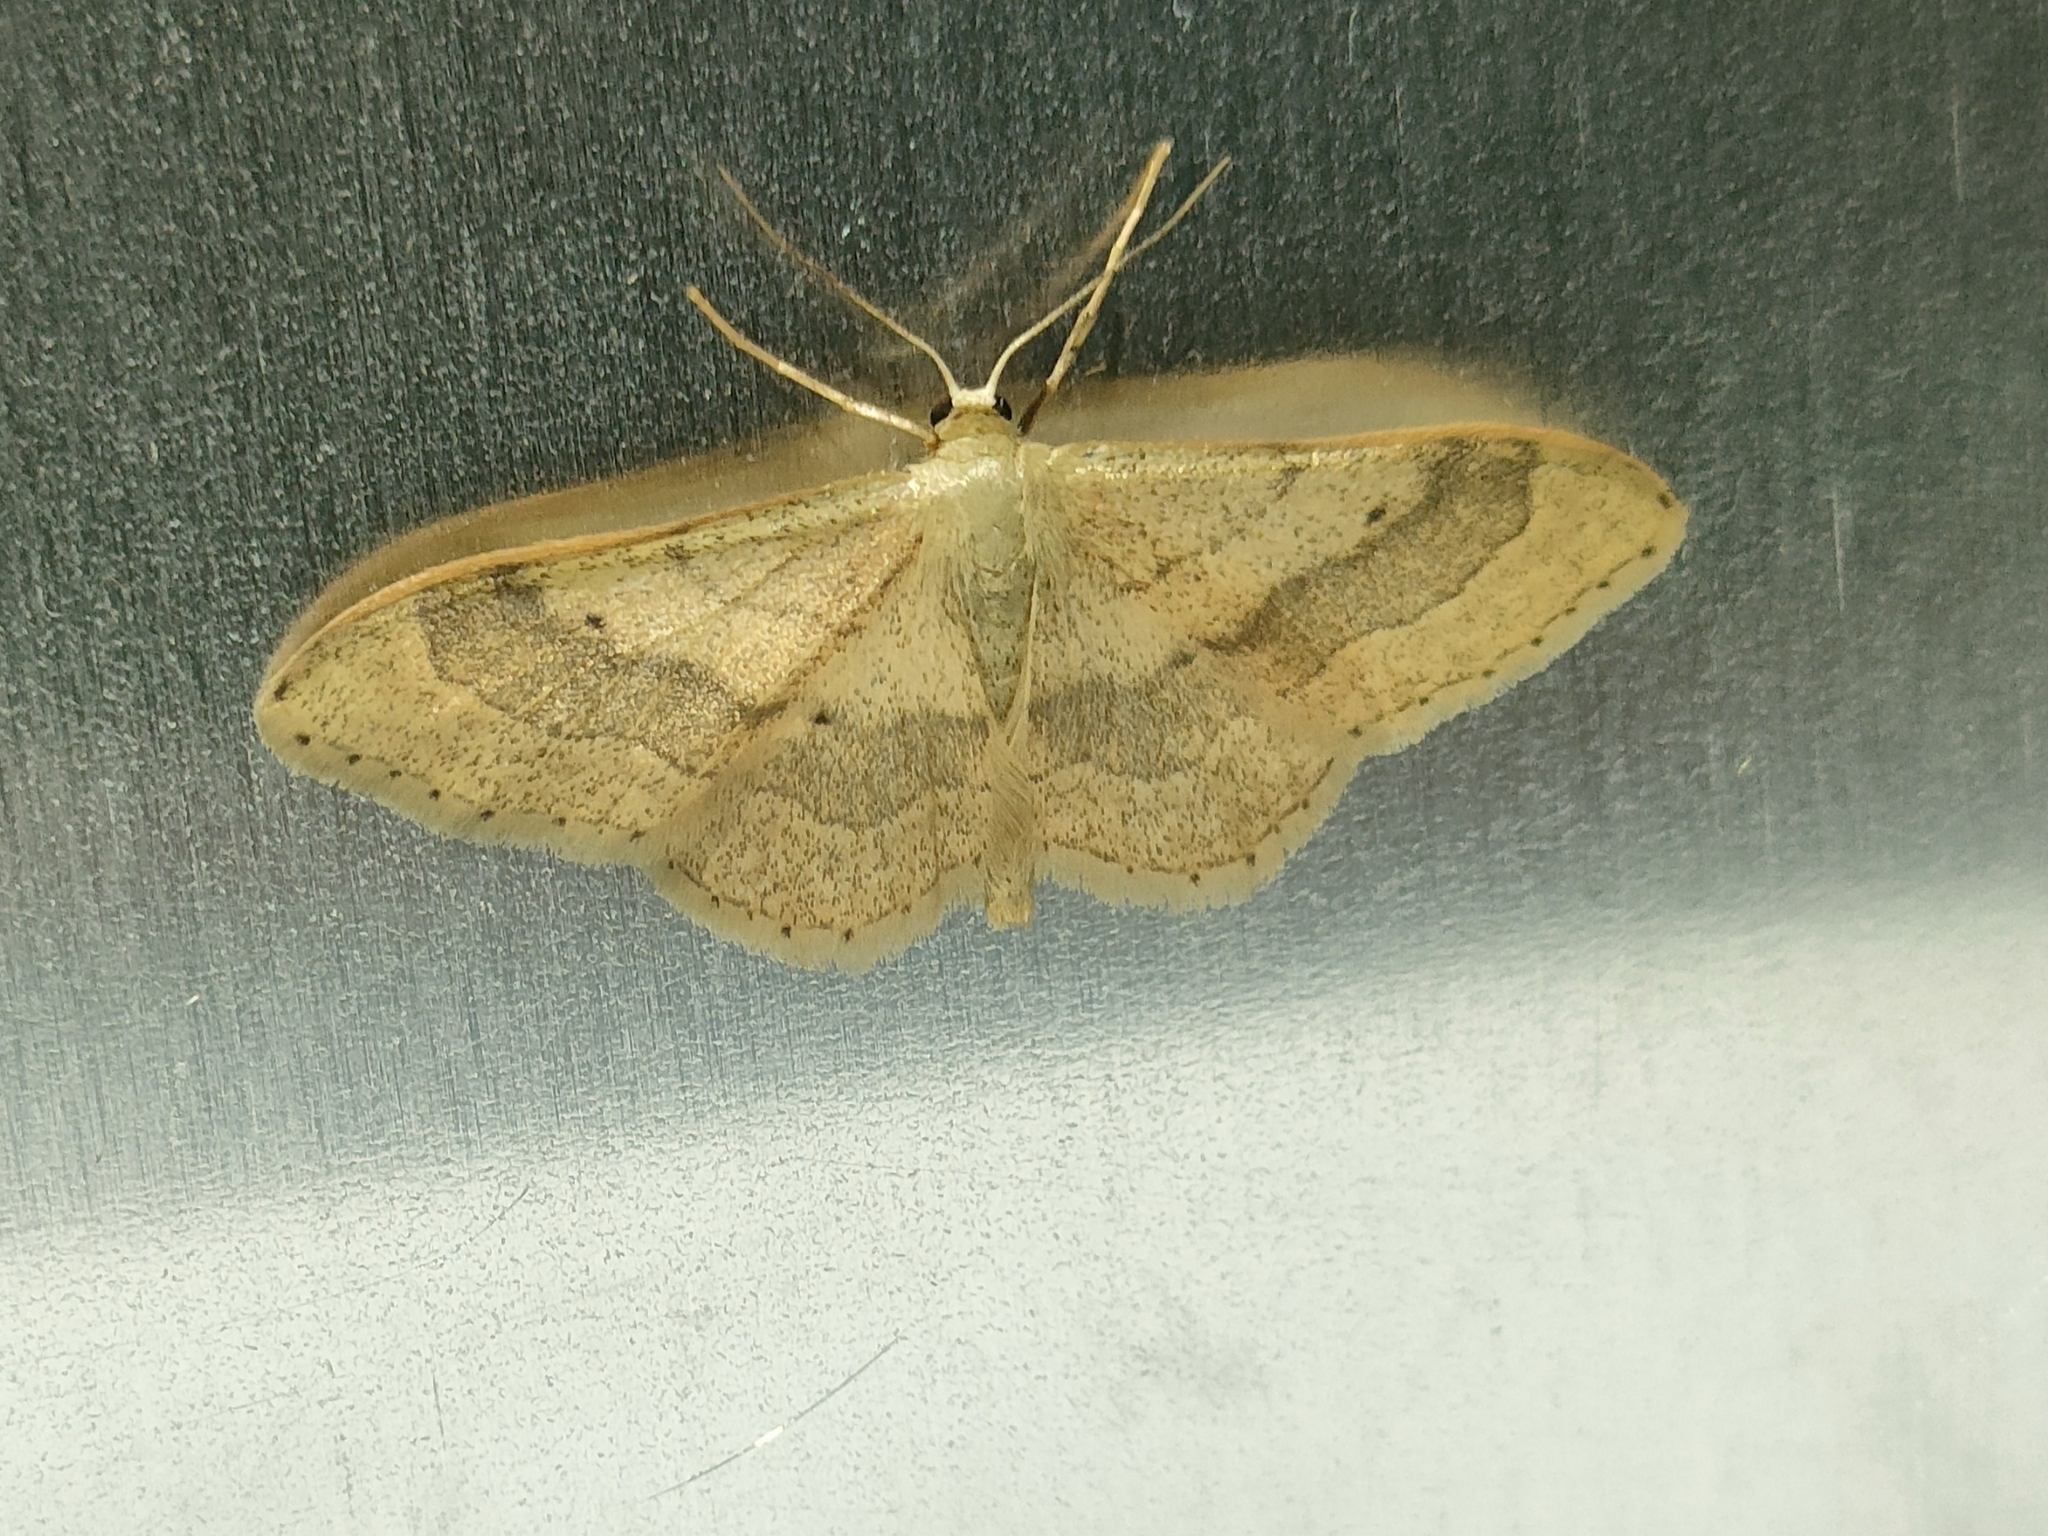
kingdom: Animalia
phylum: Arthropoda
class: Insecta
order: Lepidoptera
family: Geometridae
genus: Idaea
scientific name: Idaea aversata
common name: Riband wave
